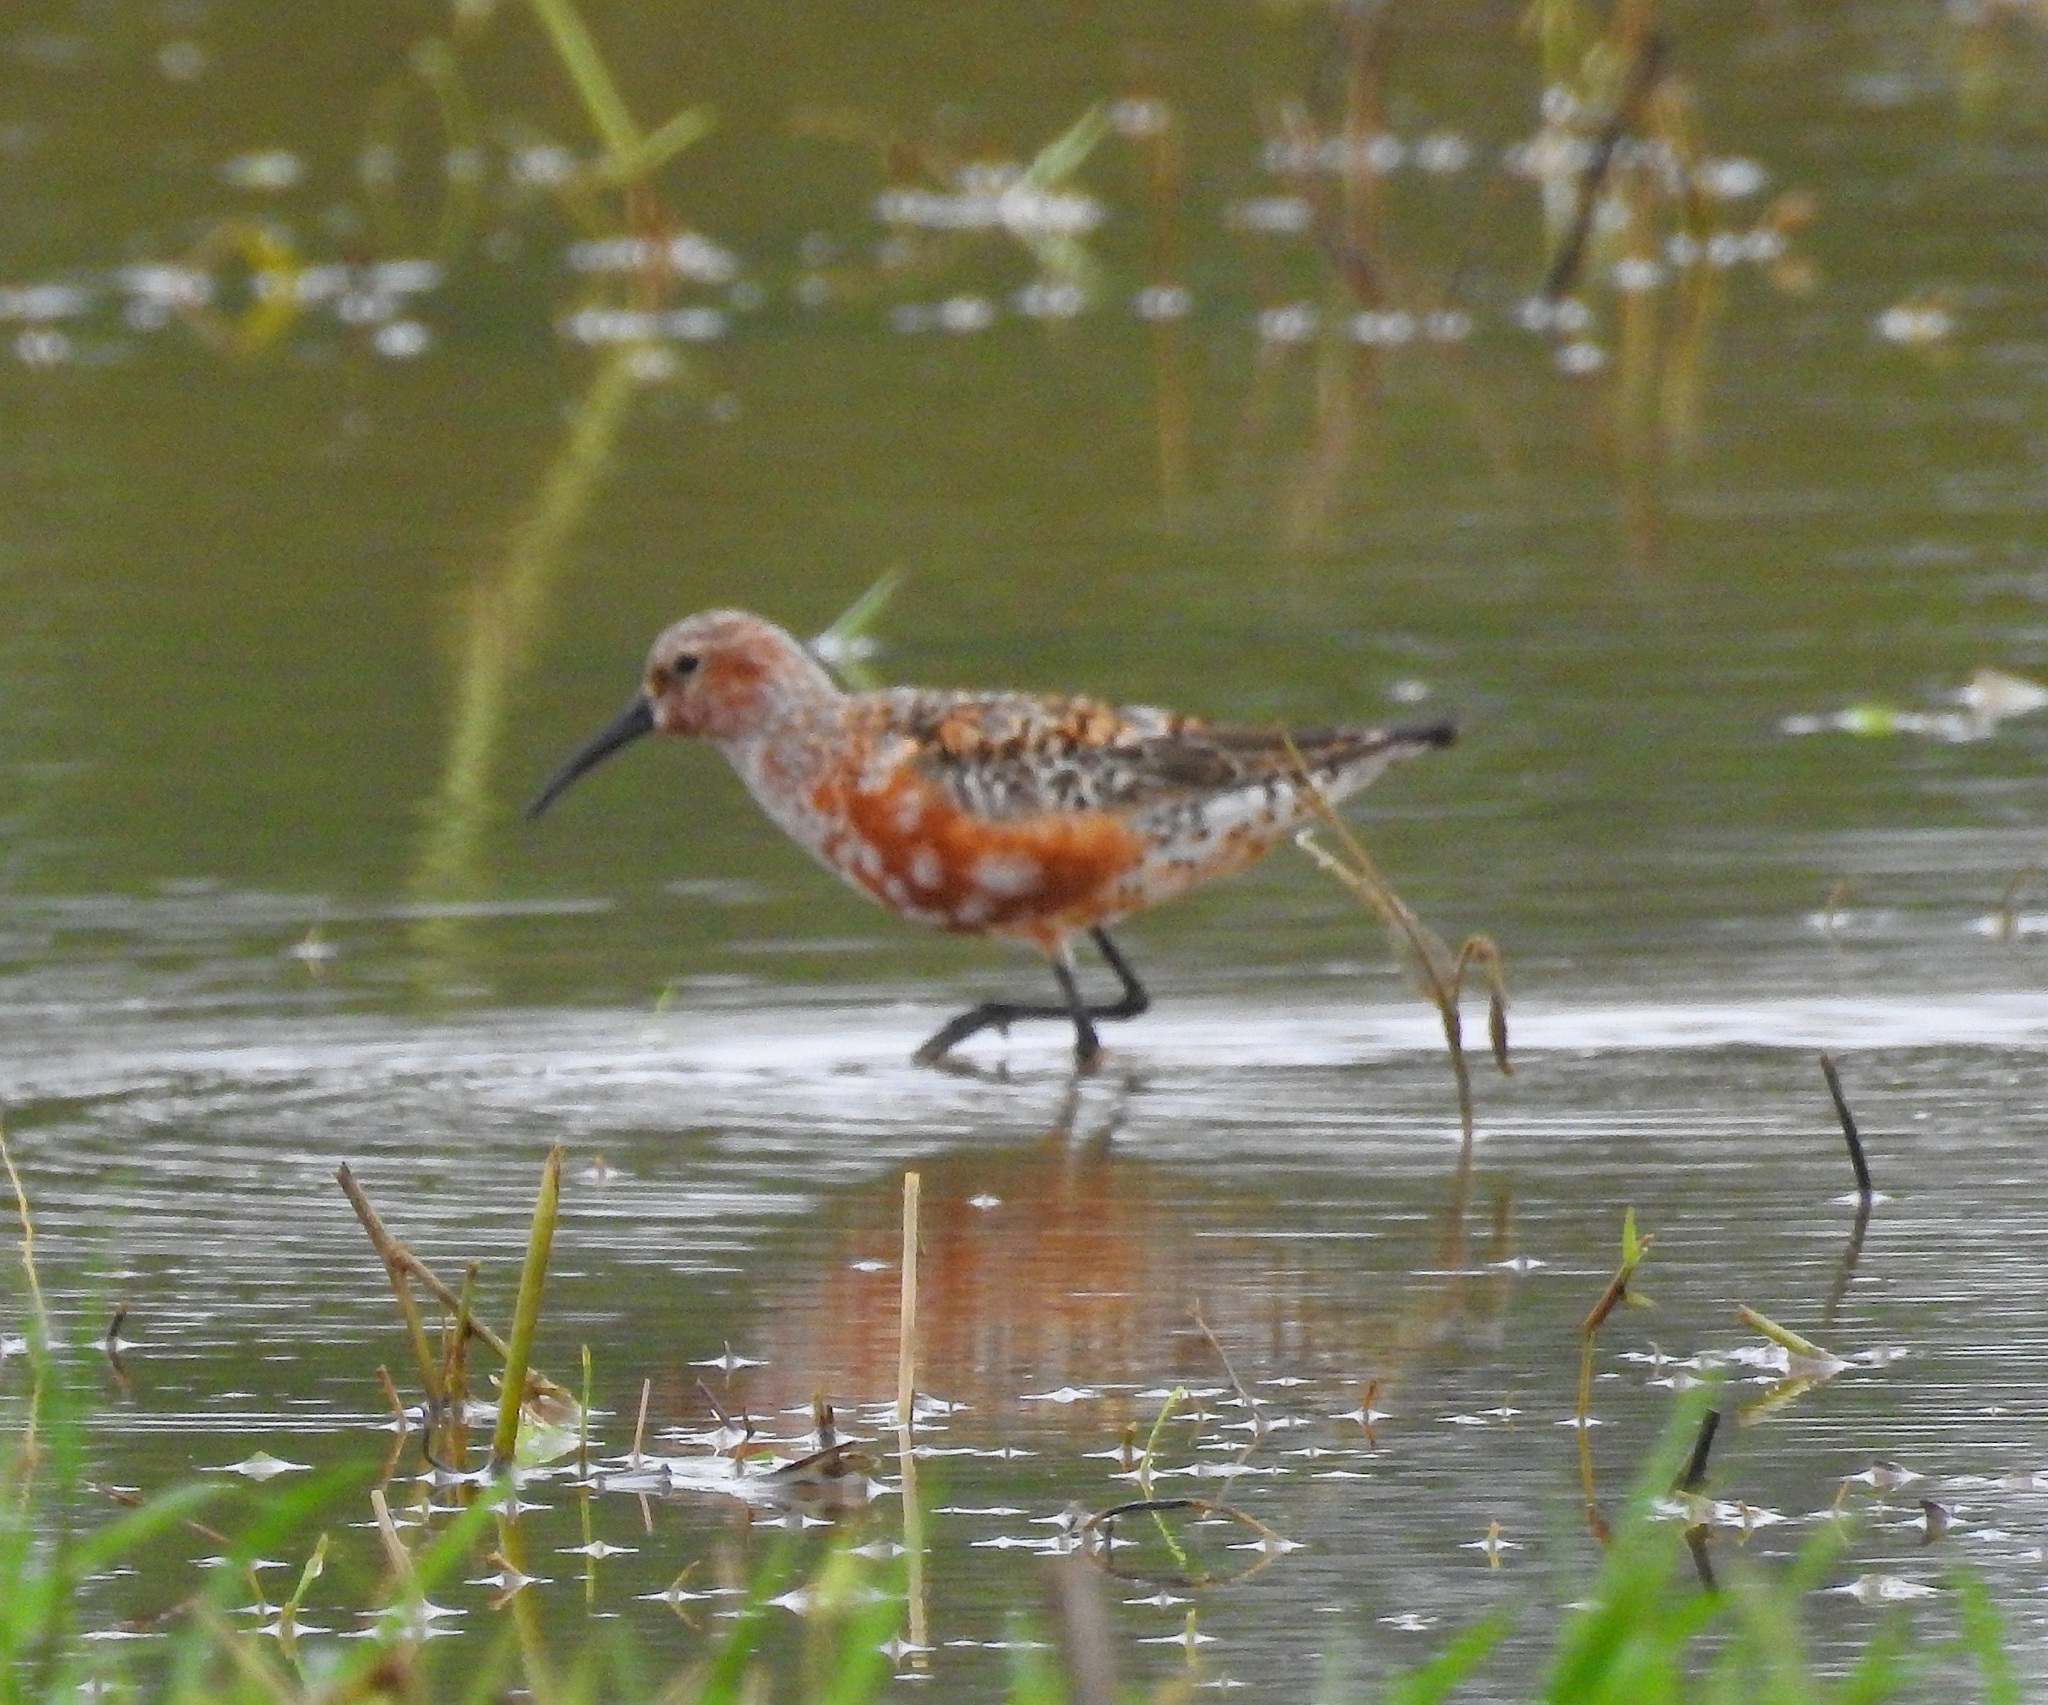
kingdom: Animalia
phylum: Chordata
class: Aves
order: Charadriiformes
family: Scolopacidae
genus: Calidris
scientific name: Calidris ferruginea
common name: Curlew sandpiper
